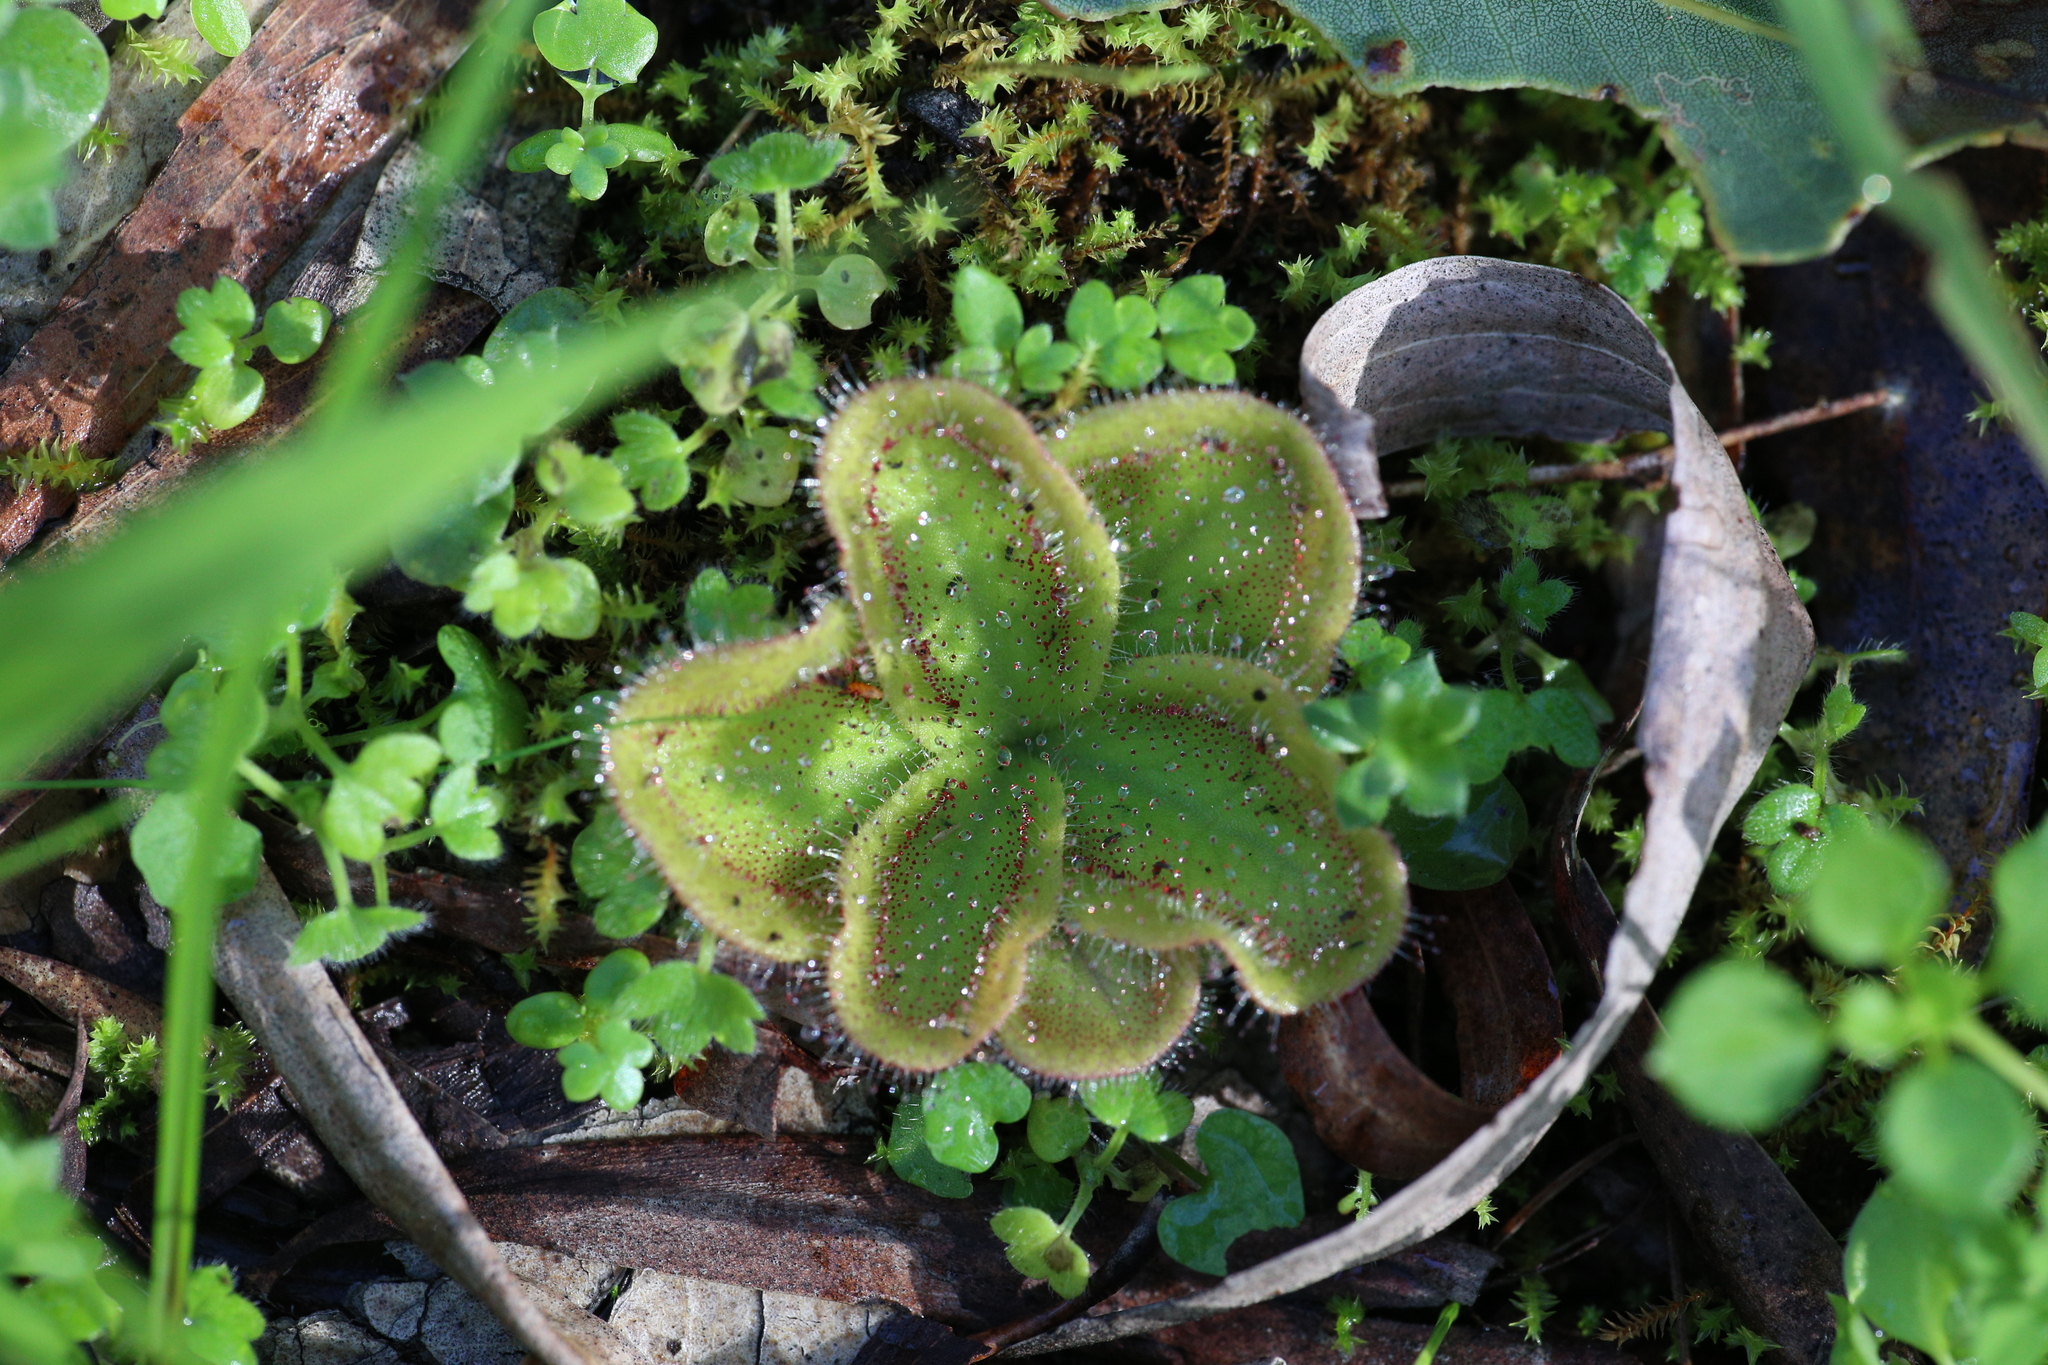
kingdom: Plantae
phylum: Tracheophyta
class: Magnoliopsida
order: Caryophyllales
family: Droseraceae
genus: Drosera
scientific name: Drosera erythrorhiza
